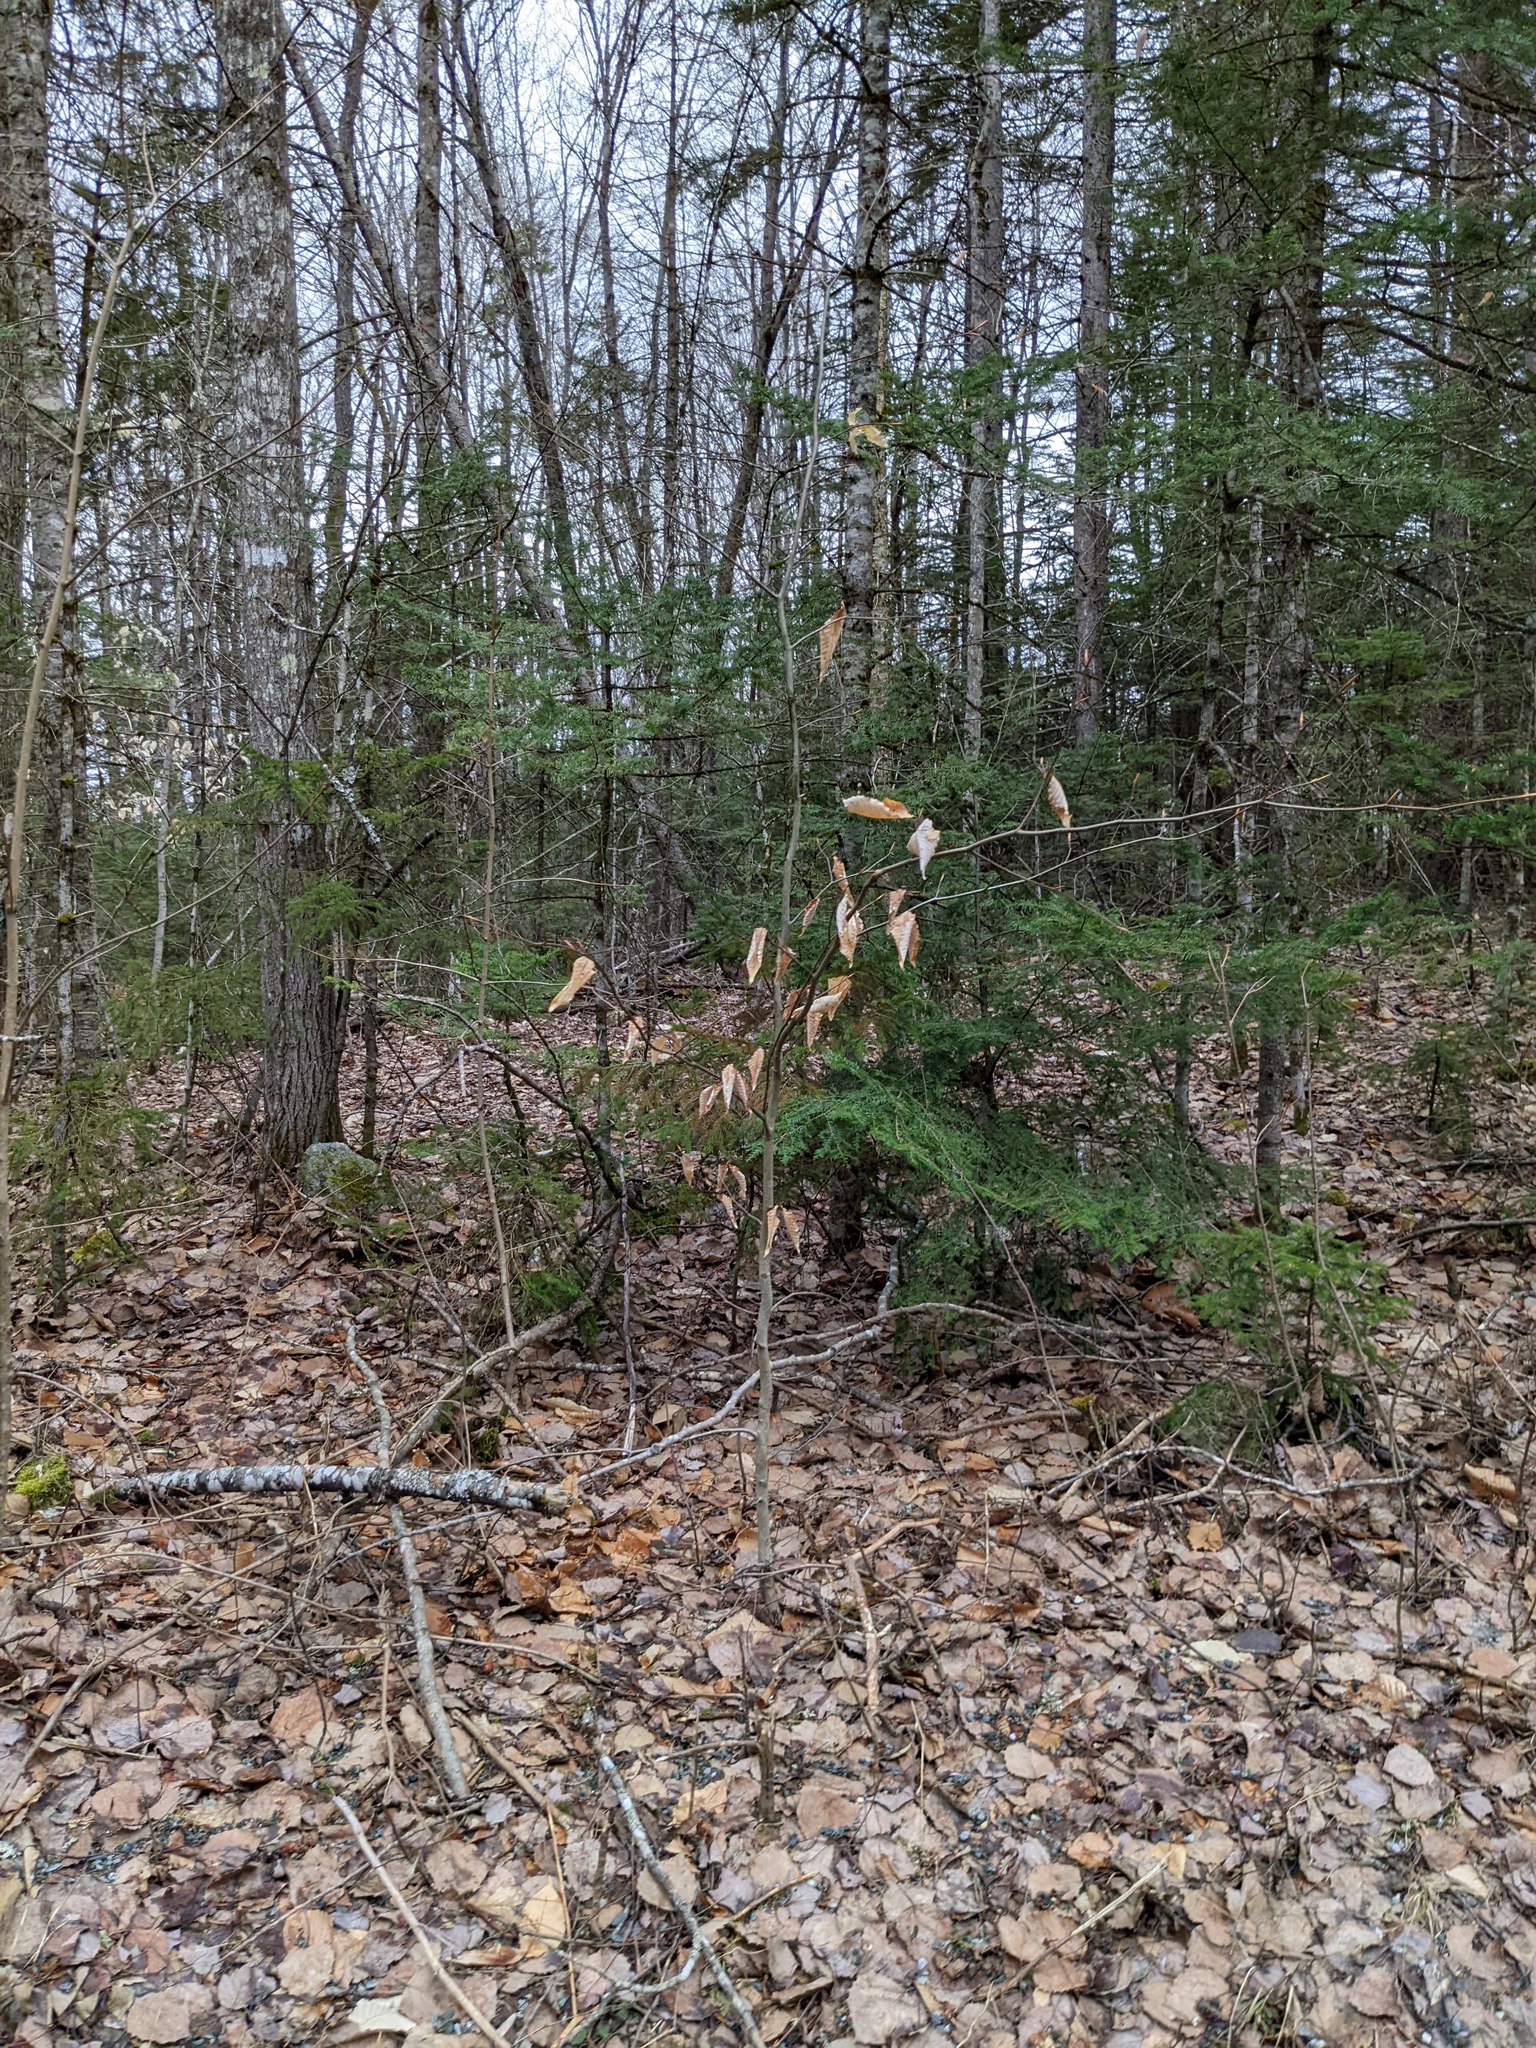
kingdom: Plantae
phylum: Tracheophyta
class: Magnoliopsida
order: Fagales
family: Fagaceae
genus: Fagus
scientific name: Fagus grandifolia
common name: American beech
